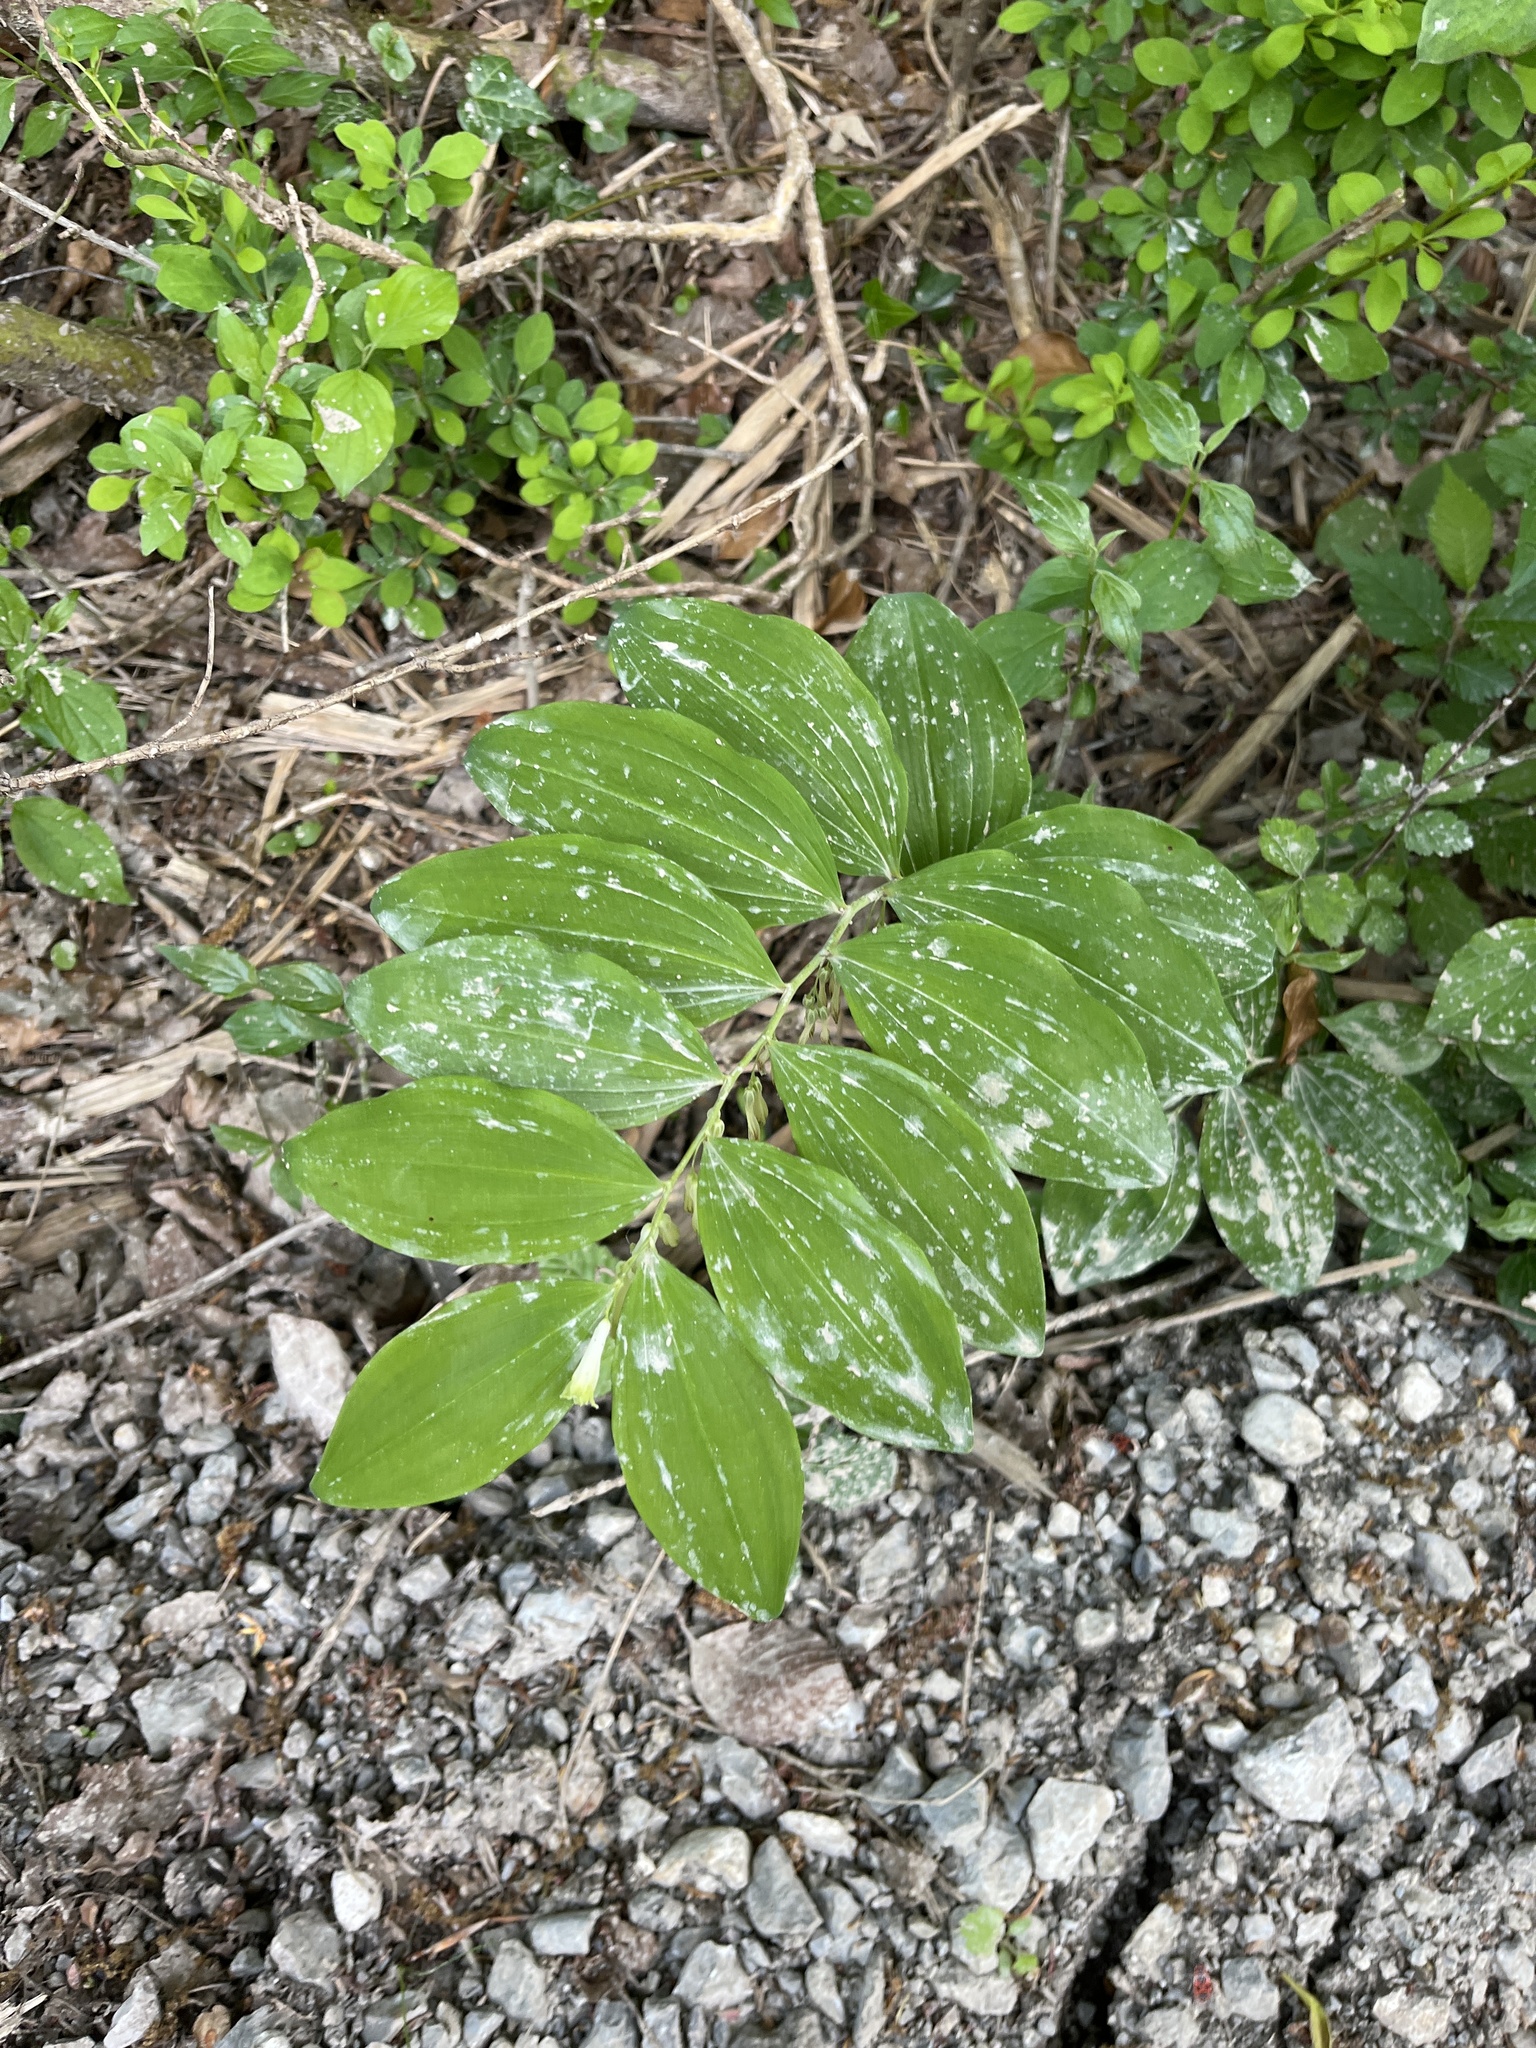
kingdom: Plantae
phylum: Tracheophyta
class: Liliopsida
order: Asparagales
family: Asparagaceae
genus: Polygonatum
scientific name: Polygonatum multiflorum
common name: Solomon's-seal
